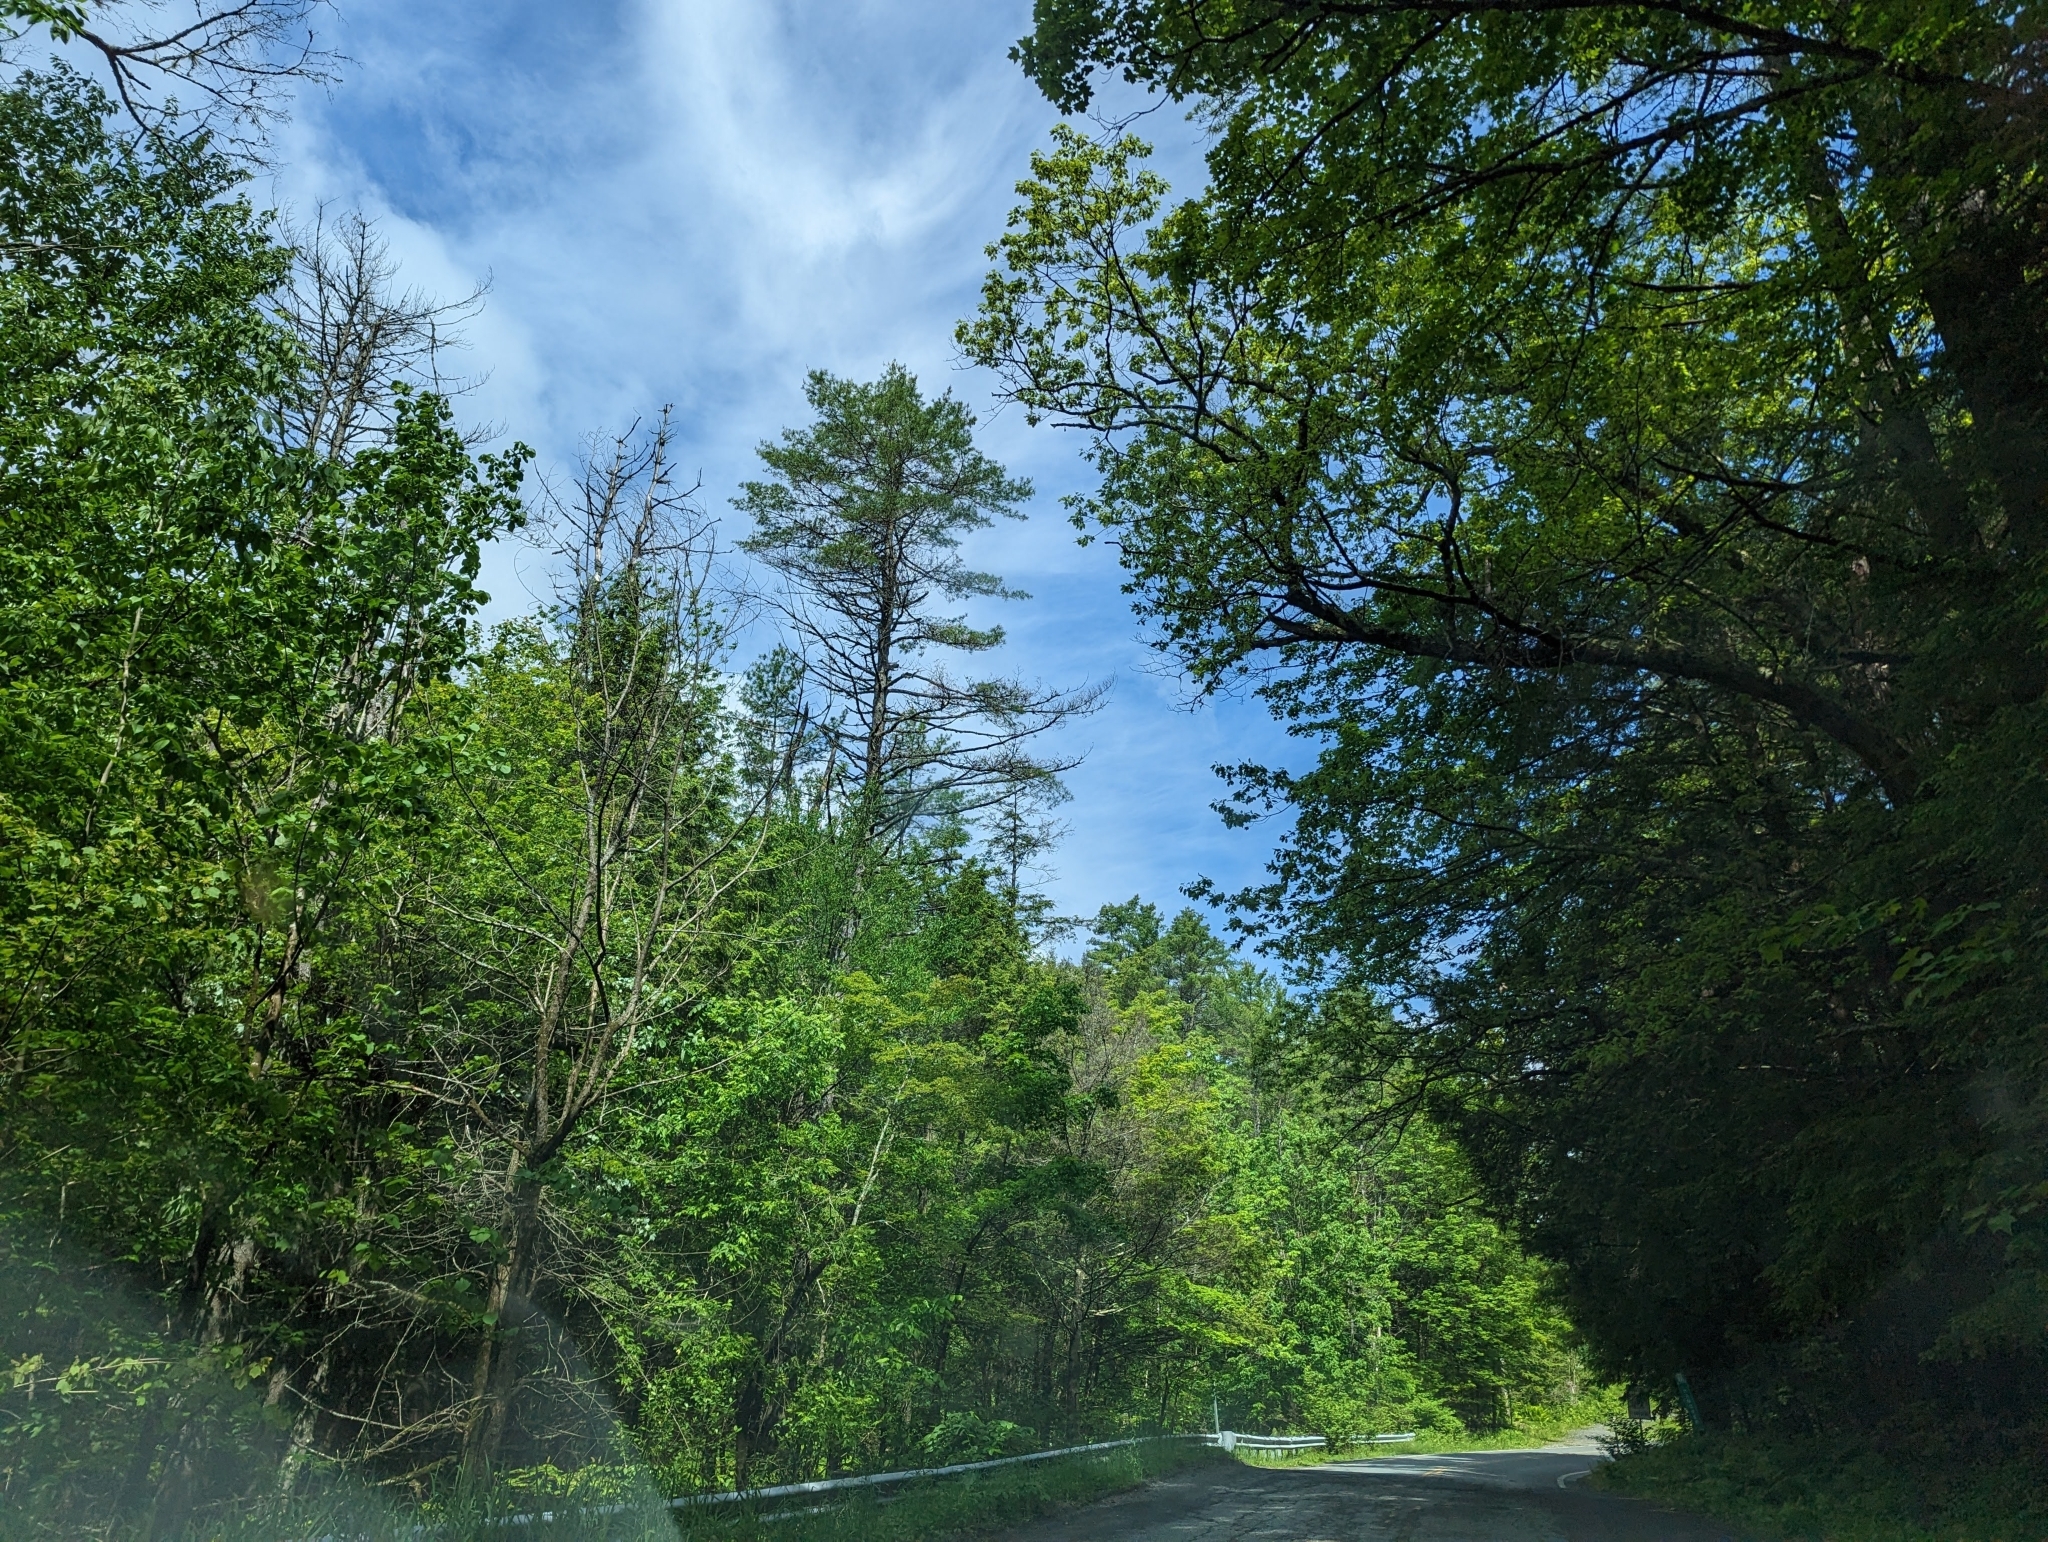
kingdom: Plantae
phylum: Tracheophyta
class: Pinopsida
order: Pinales
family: Pinaceae
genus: Pinus
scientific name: Pinus strobus
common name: Weymouth pine
